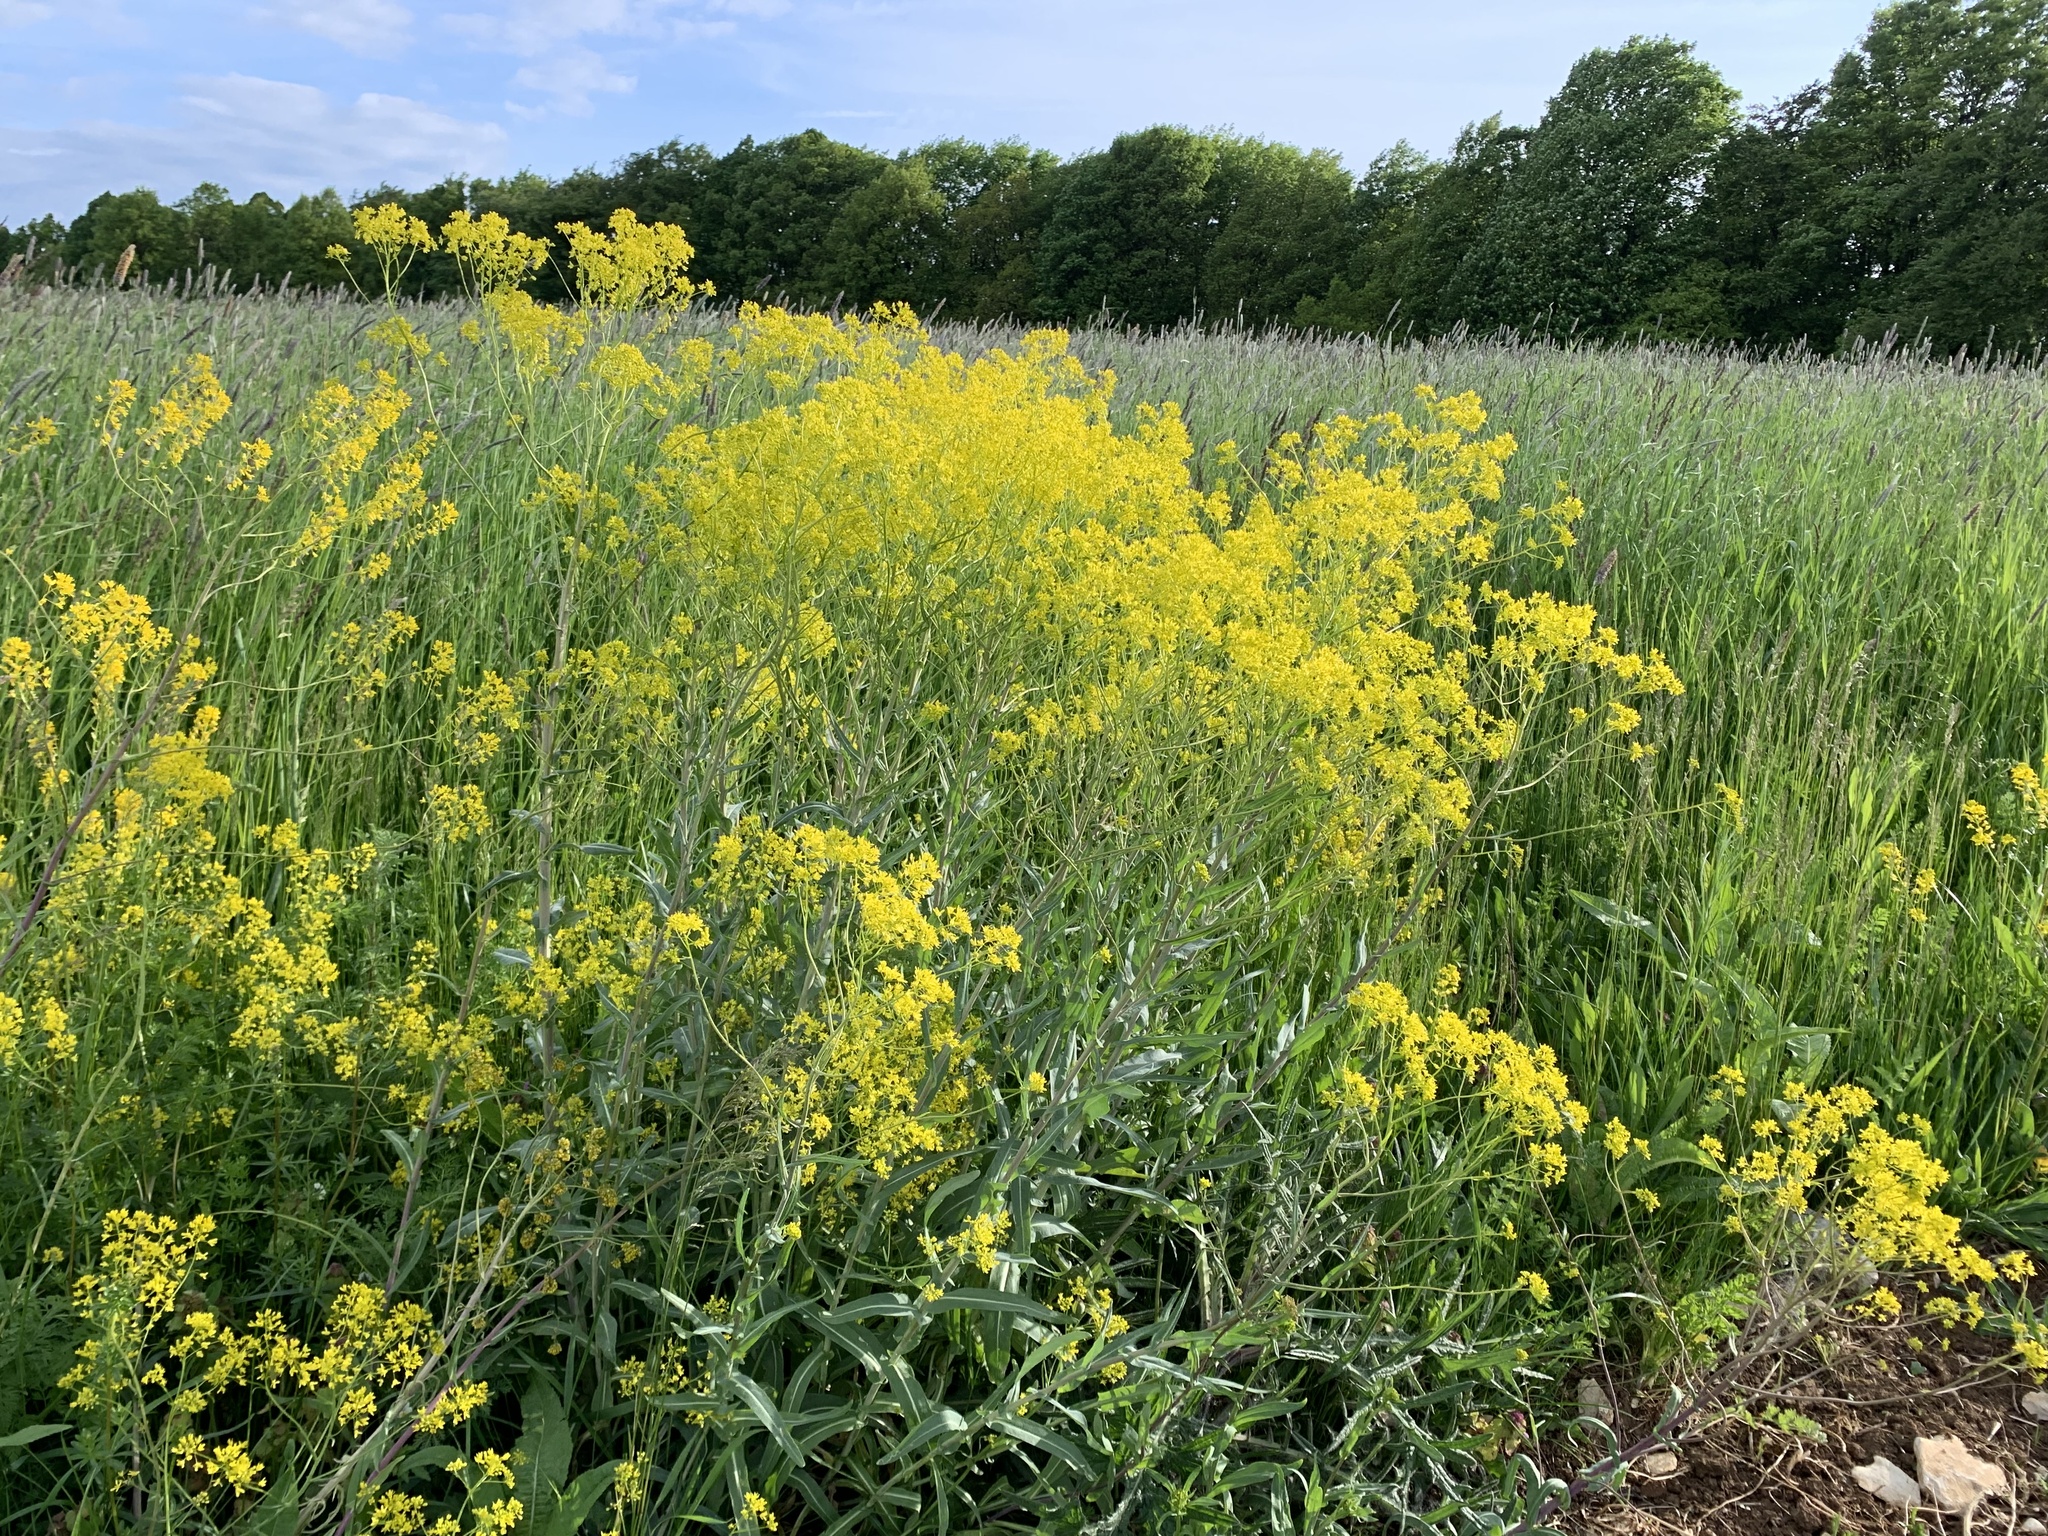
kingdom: Plantae
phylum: Tracheophyta
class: Magnoliopsida
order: Brassicales
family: Brassicaceae
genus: Isatis
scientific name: Isatis tinctoria
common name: Woad
